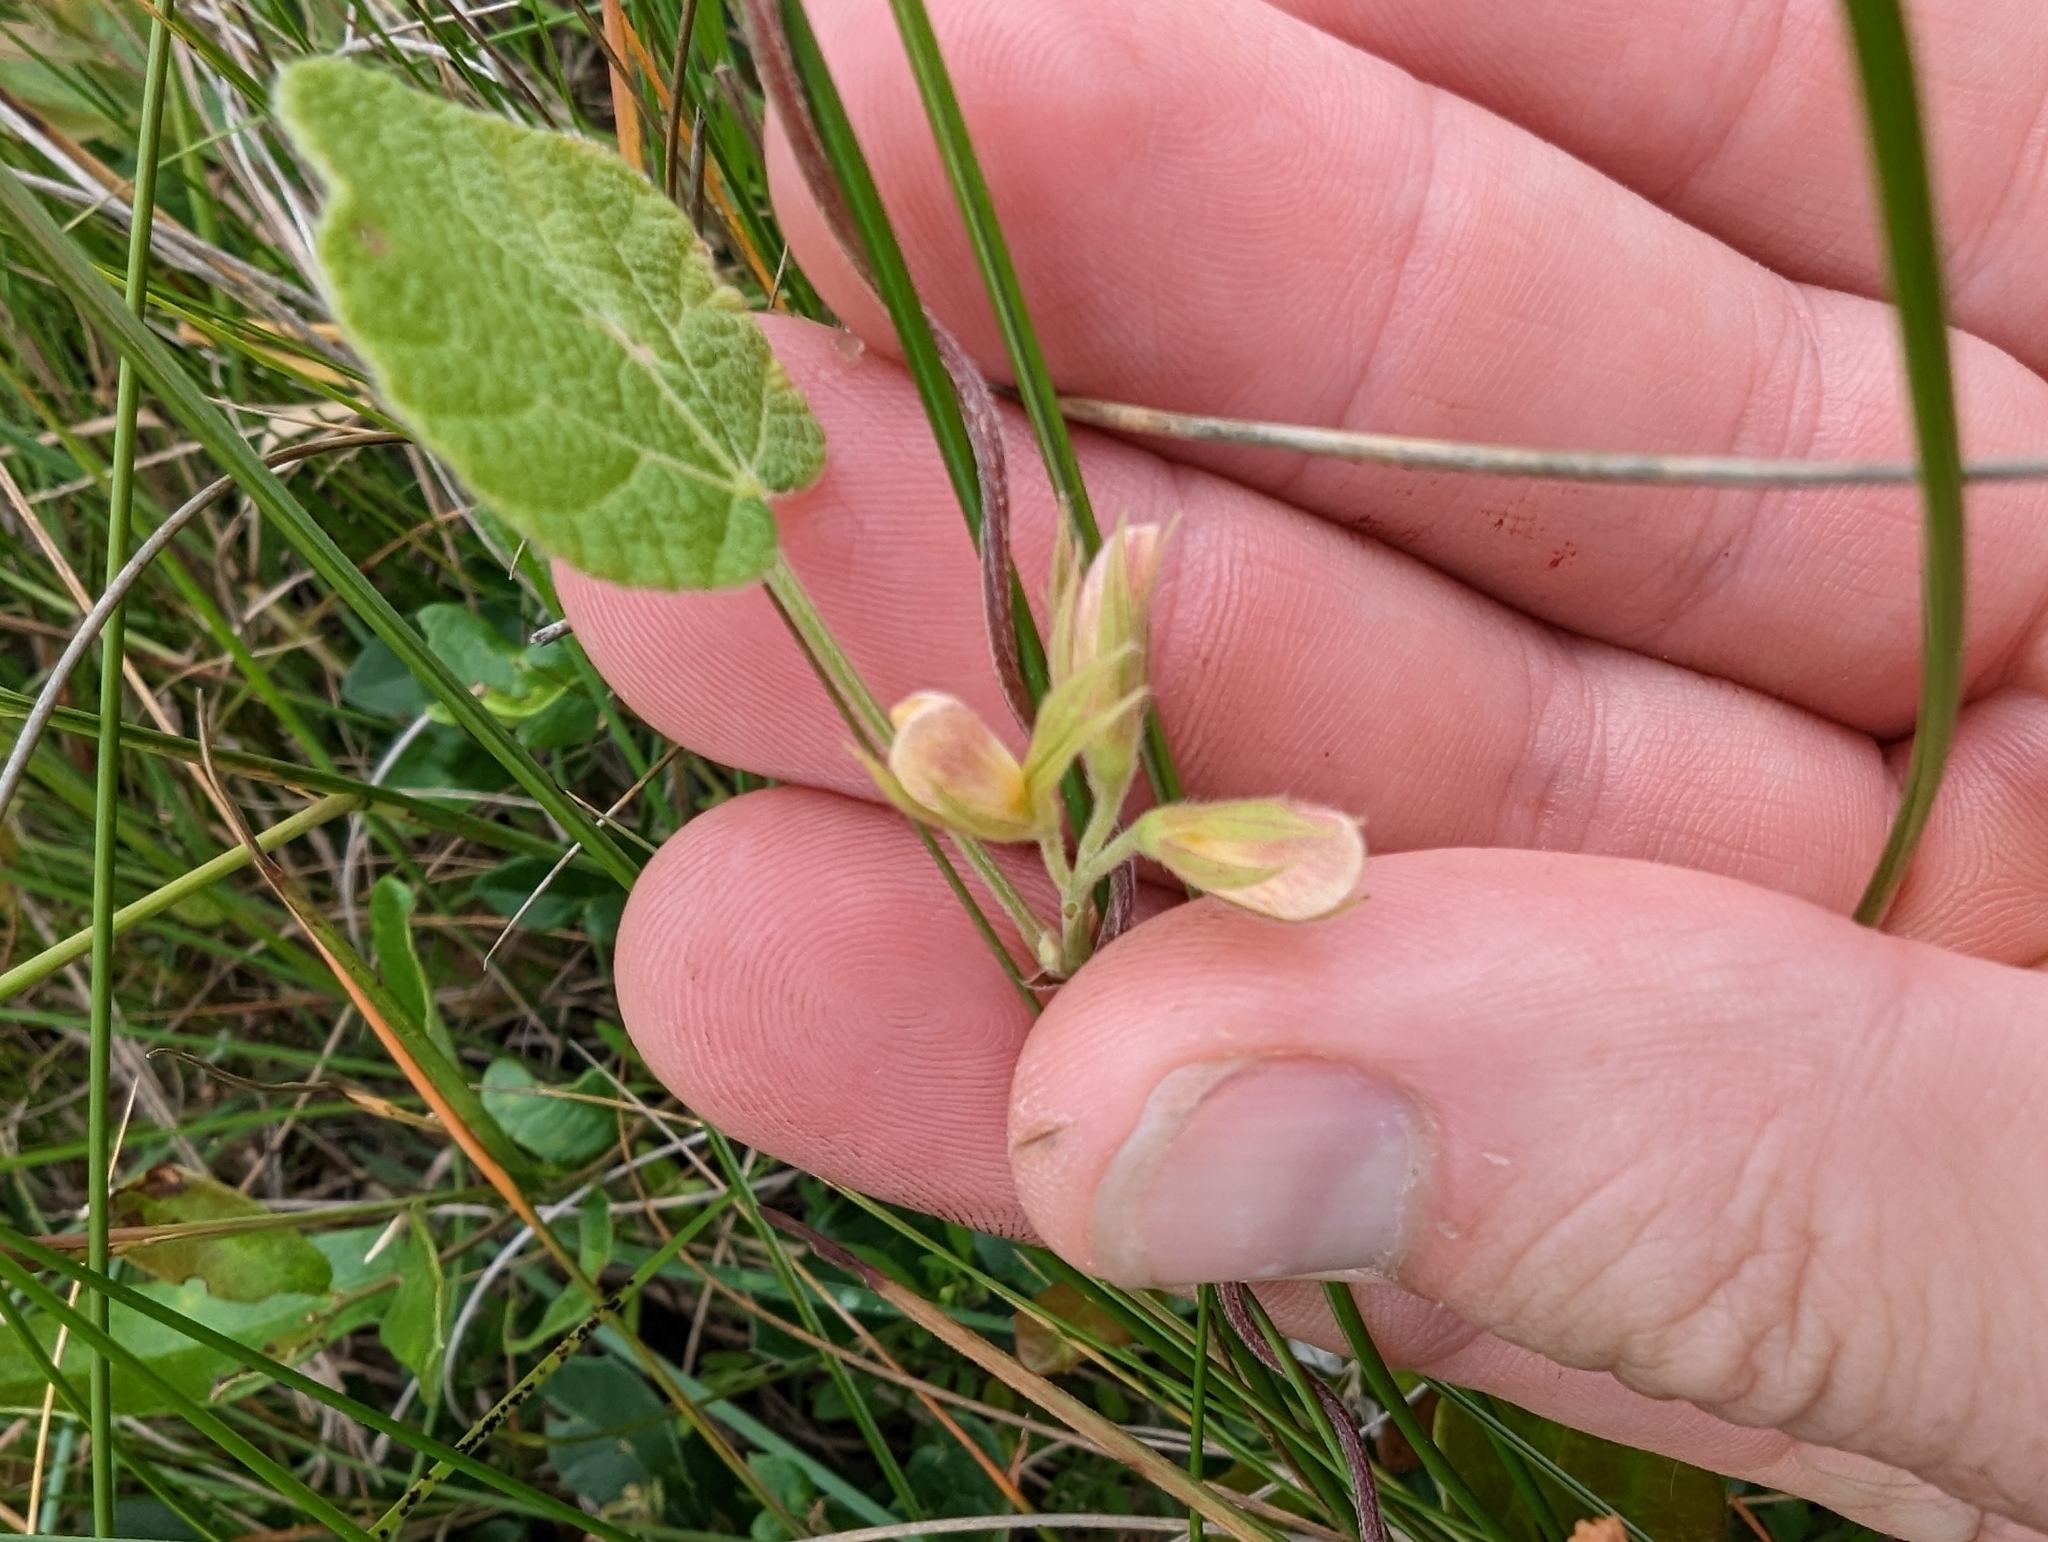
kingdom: Plantae
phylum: Tracheophyta
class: Magnoliopsida
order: Fabales
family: Fabaceae
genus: Rhynchosia
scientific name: Rhynchosia americana
